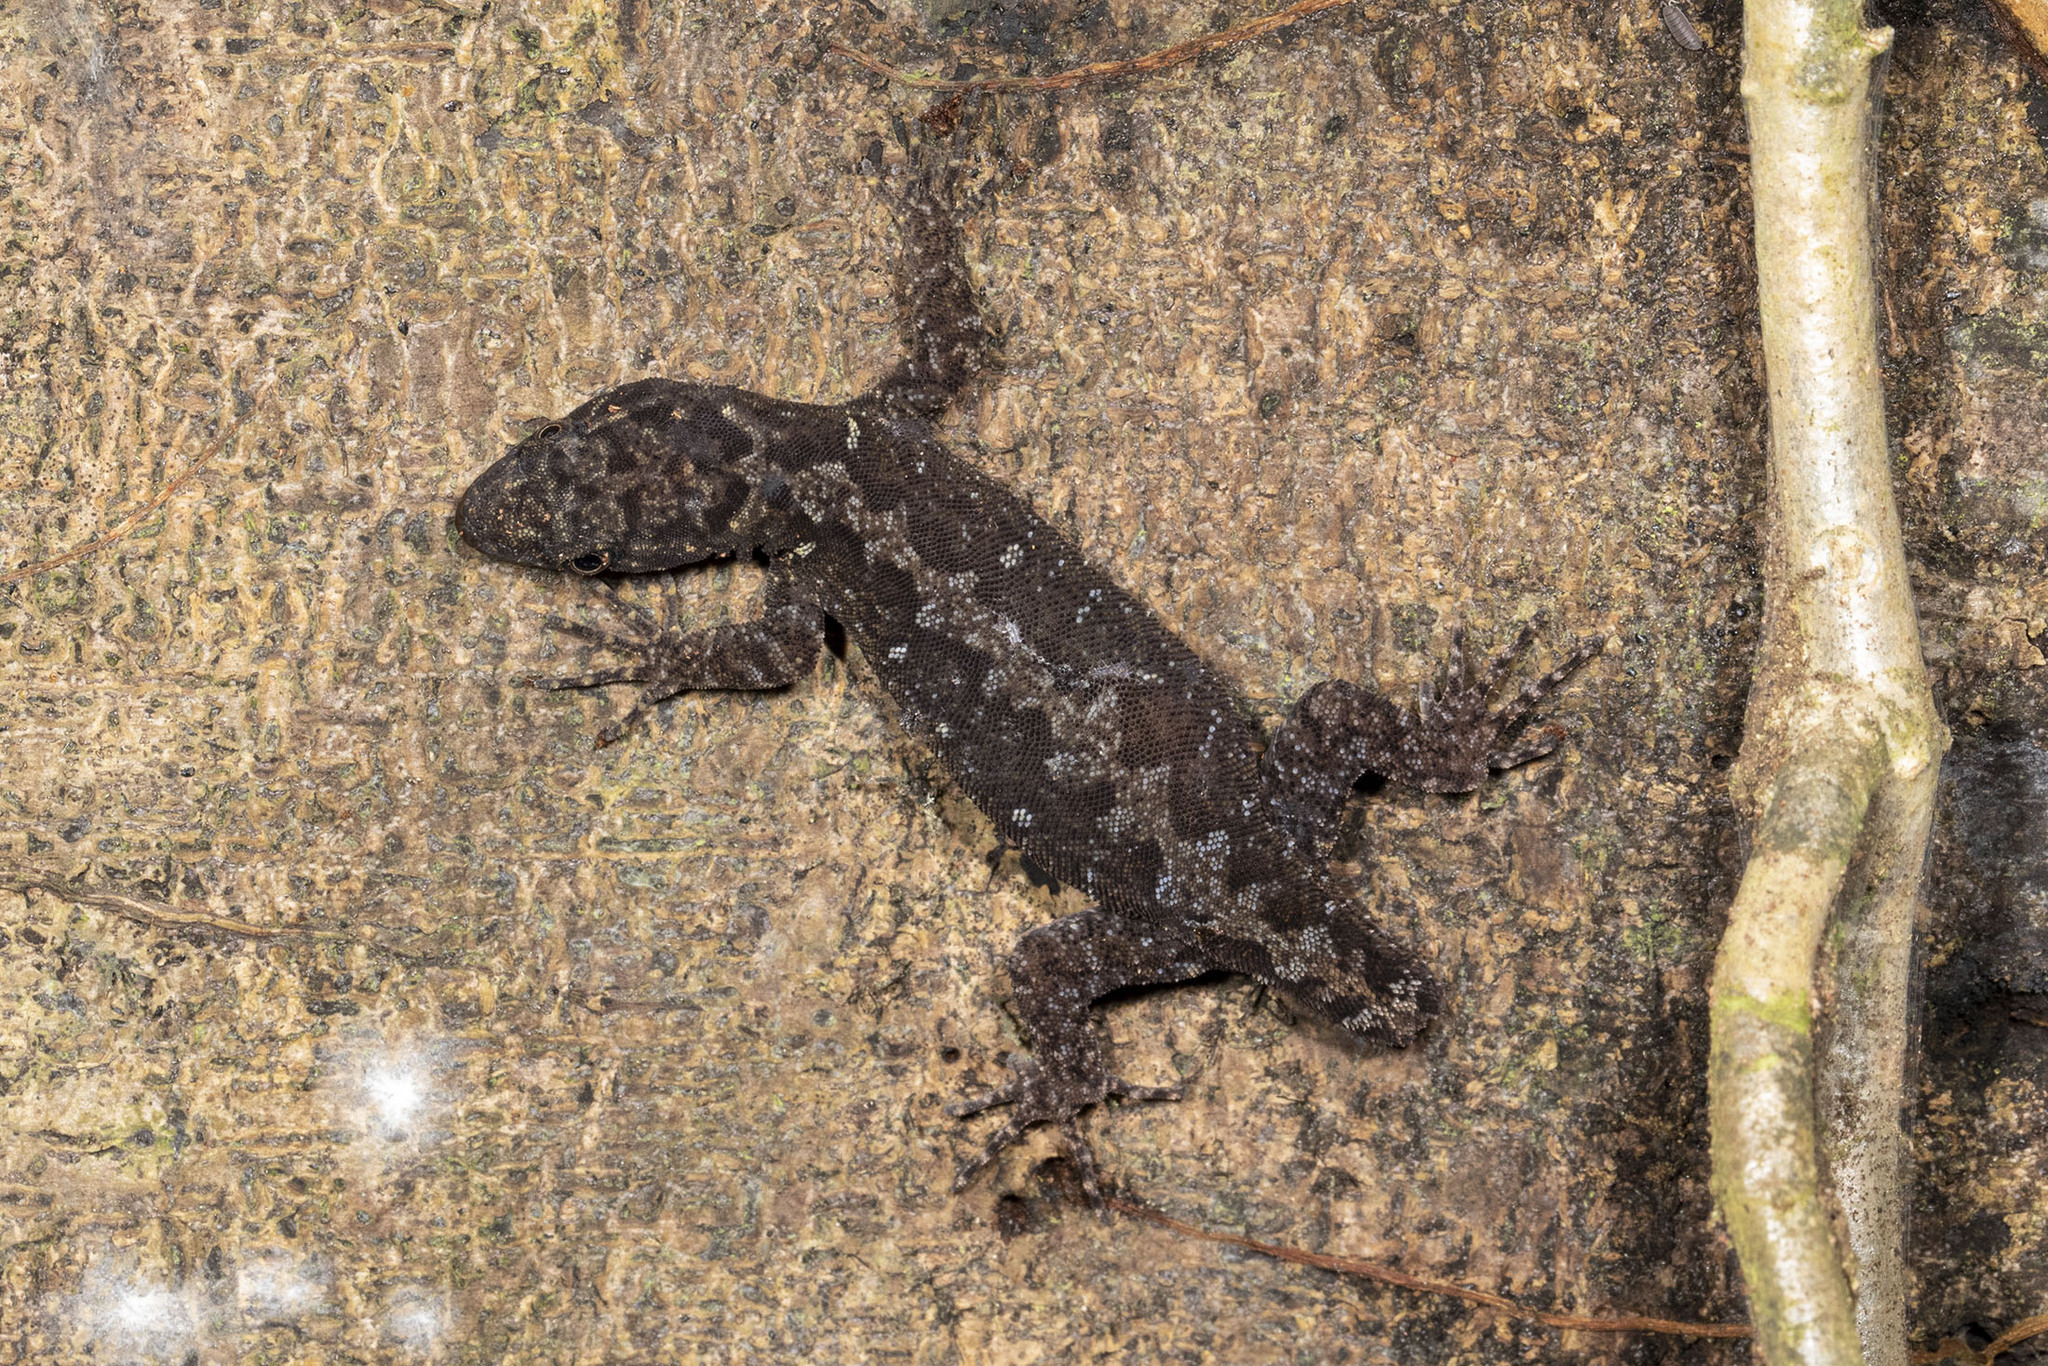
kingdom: Animalia
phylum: Chordata
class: Squamata
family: Sphaerodactylidae
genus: Gonatodes
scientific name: Gonatodes humeralis
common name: South american clawed gecko
